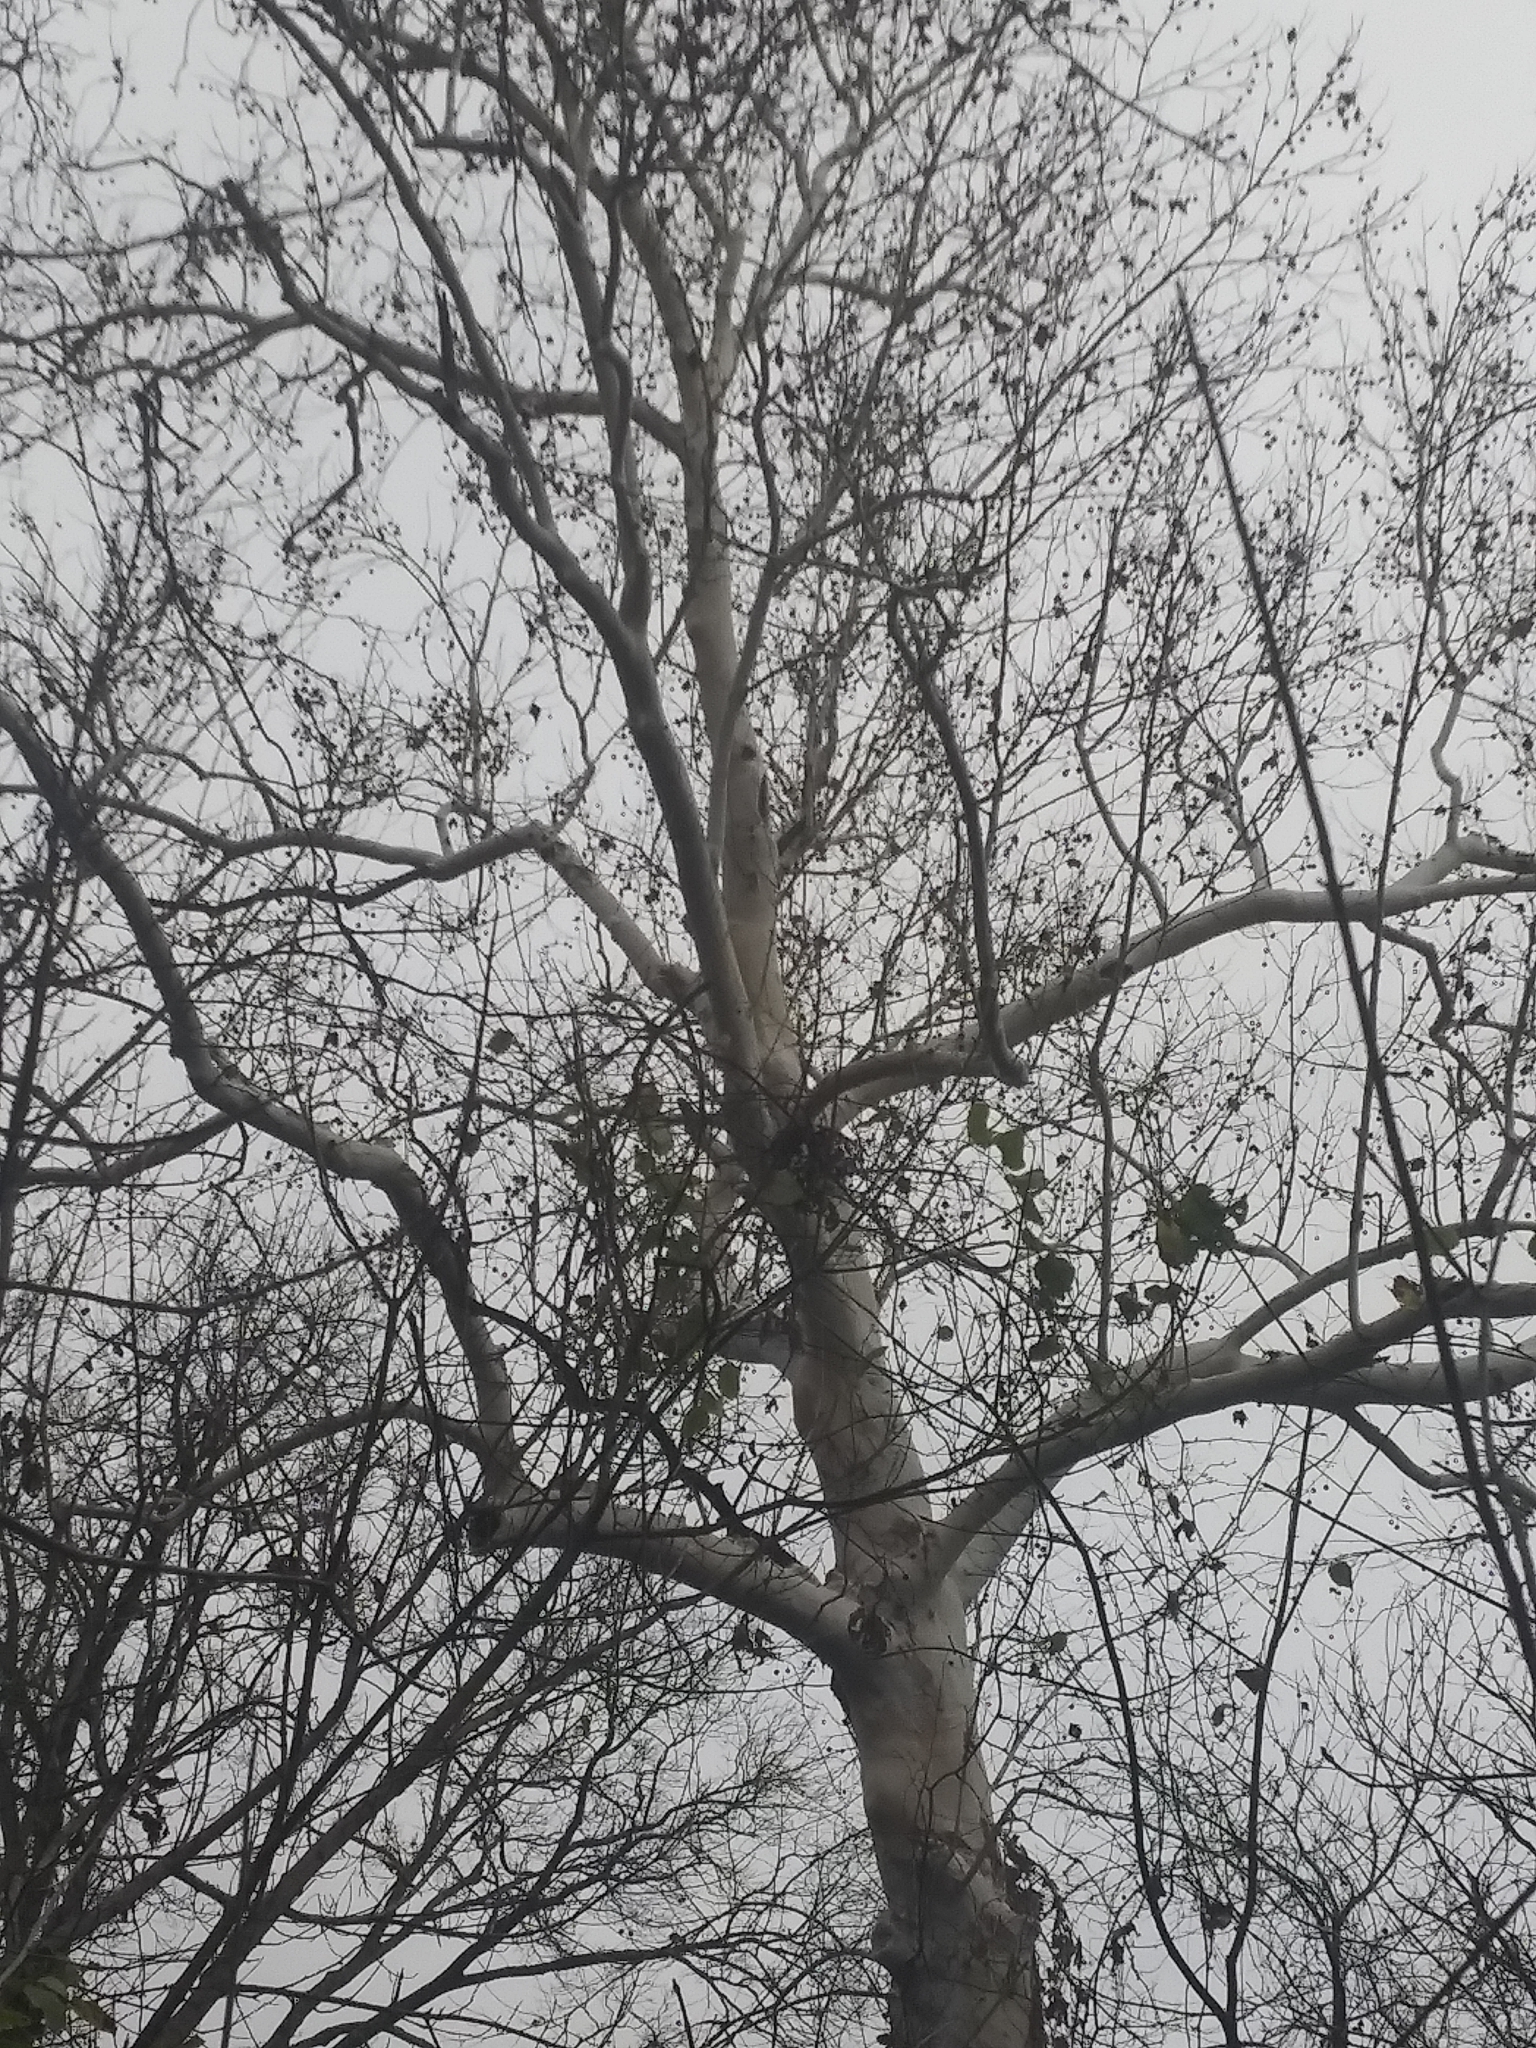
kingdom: Plantae
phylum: Tracheophyta
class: Magnoliopsida
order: Proteales
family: Platanaceae
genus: Platanus
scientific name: Platanus occidentalis
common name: American sycamore
